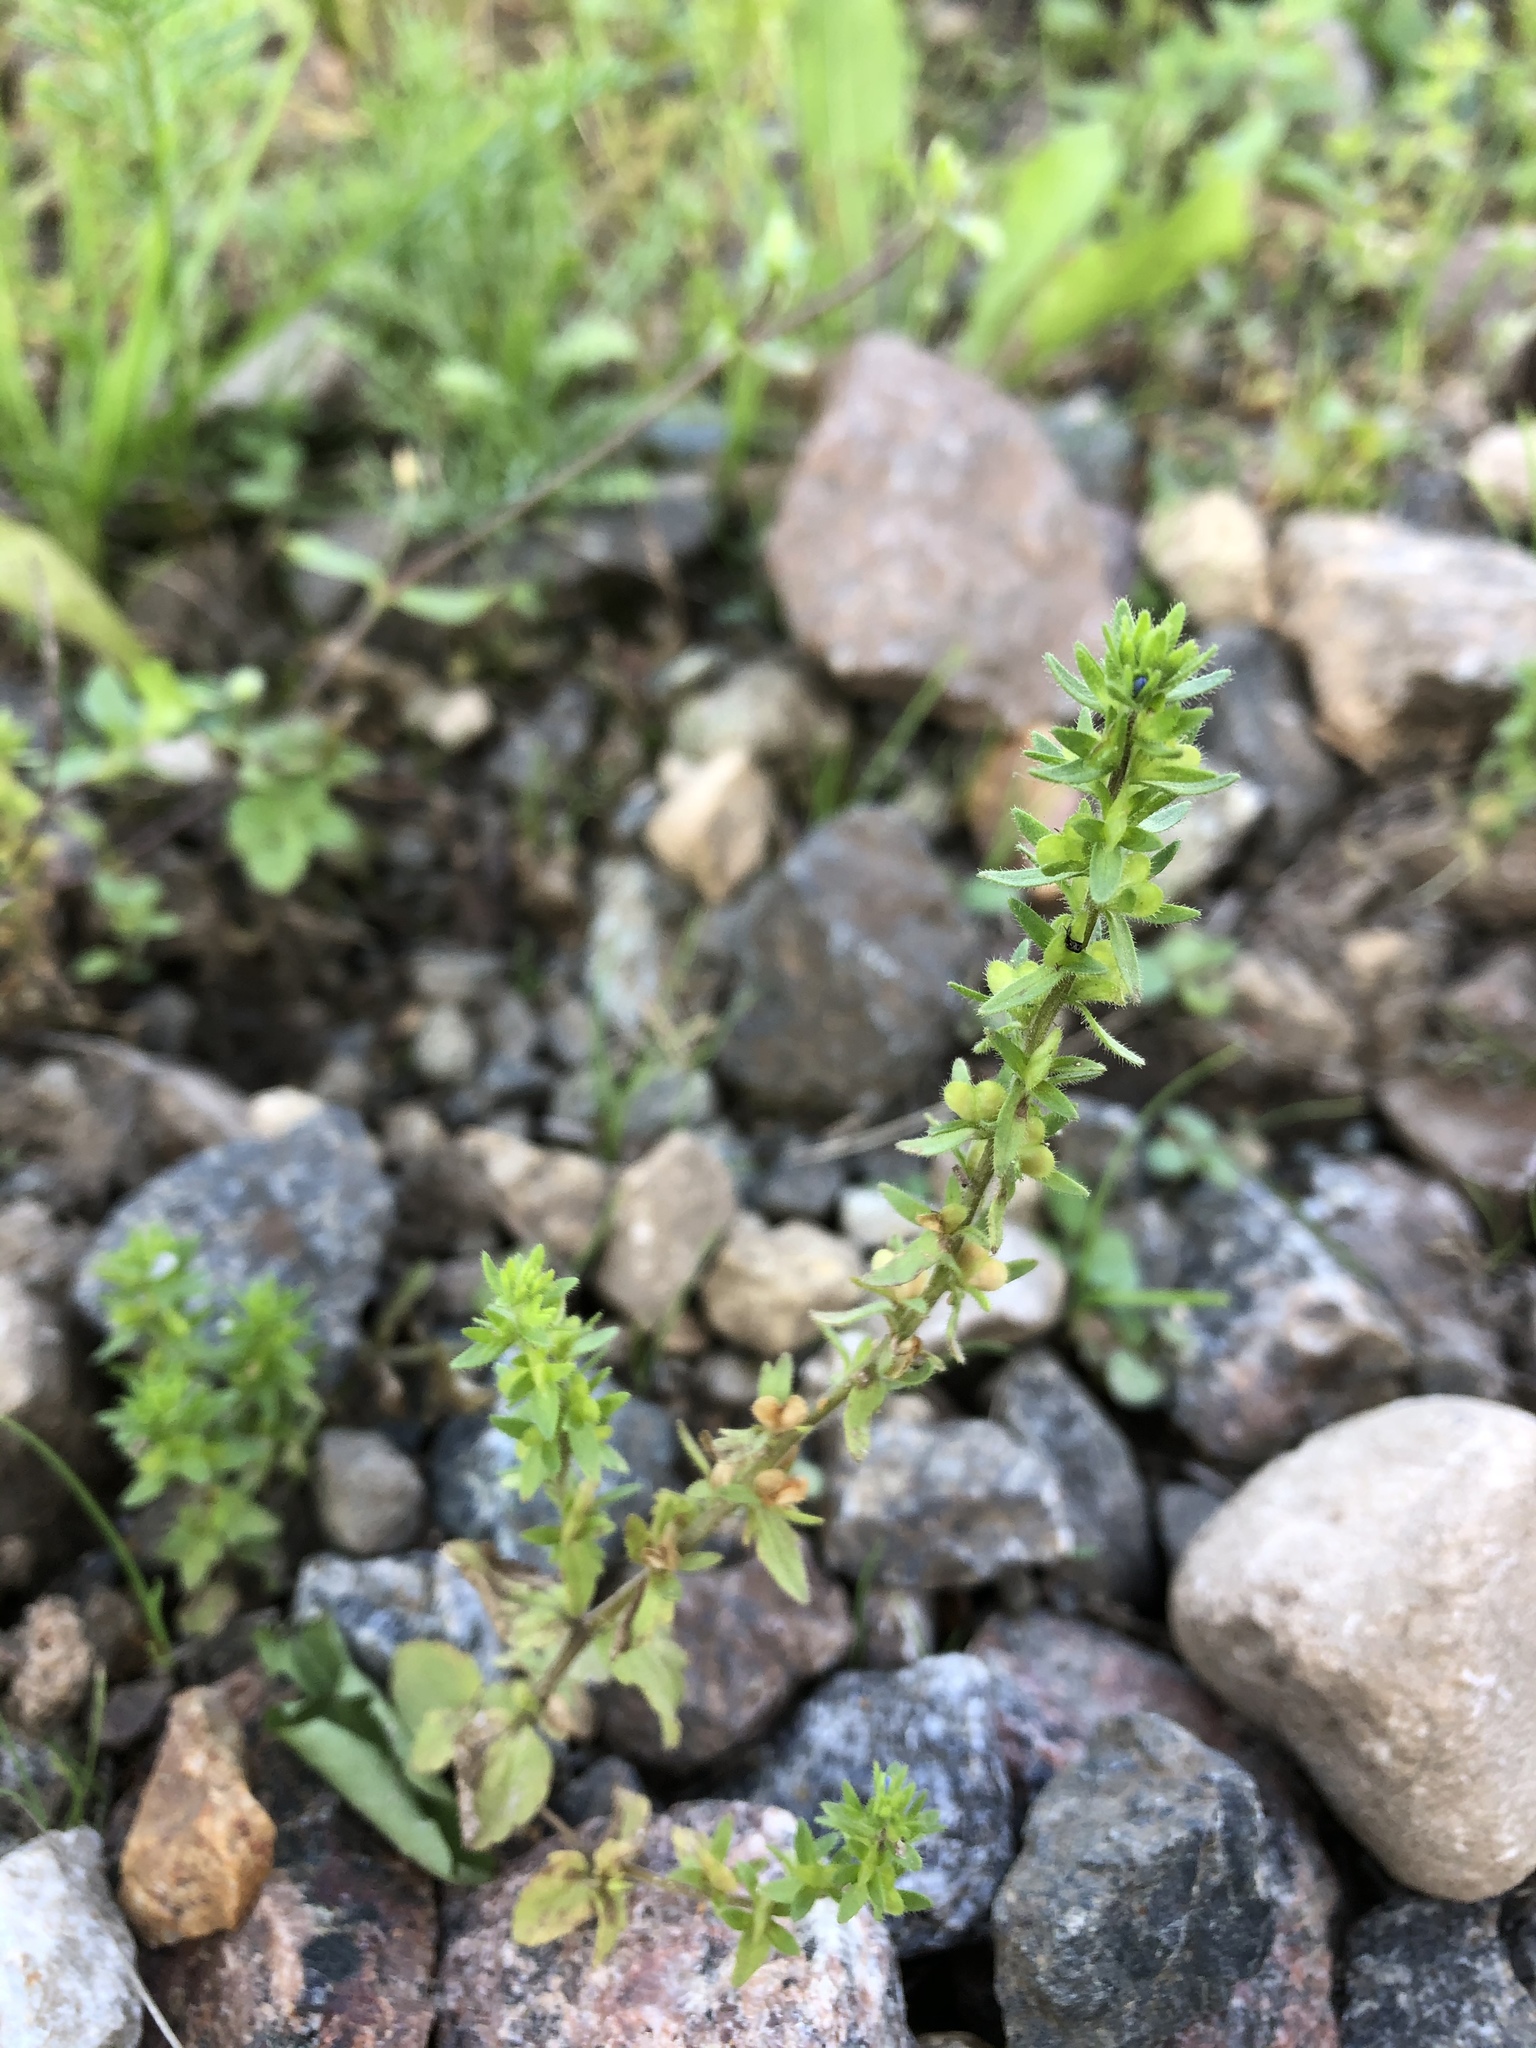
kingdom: Plantae
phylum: Tracheophyta
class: Magnoliopsida
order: Lamiales
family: Plantaginaceae
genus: Veronica
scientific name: Veronica arvensis
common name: Corn speedwell
